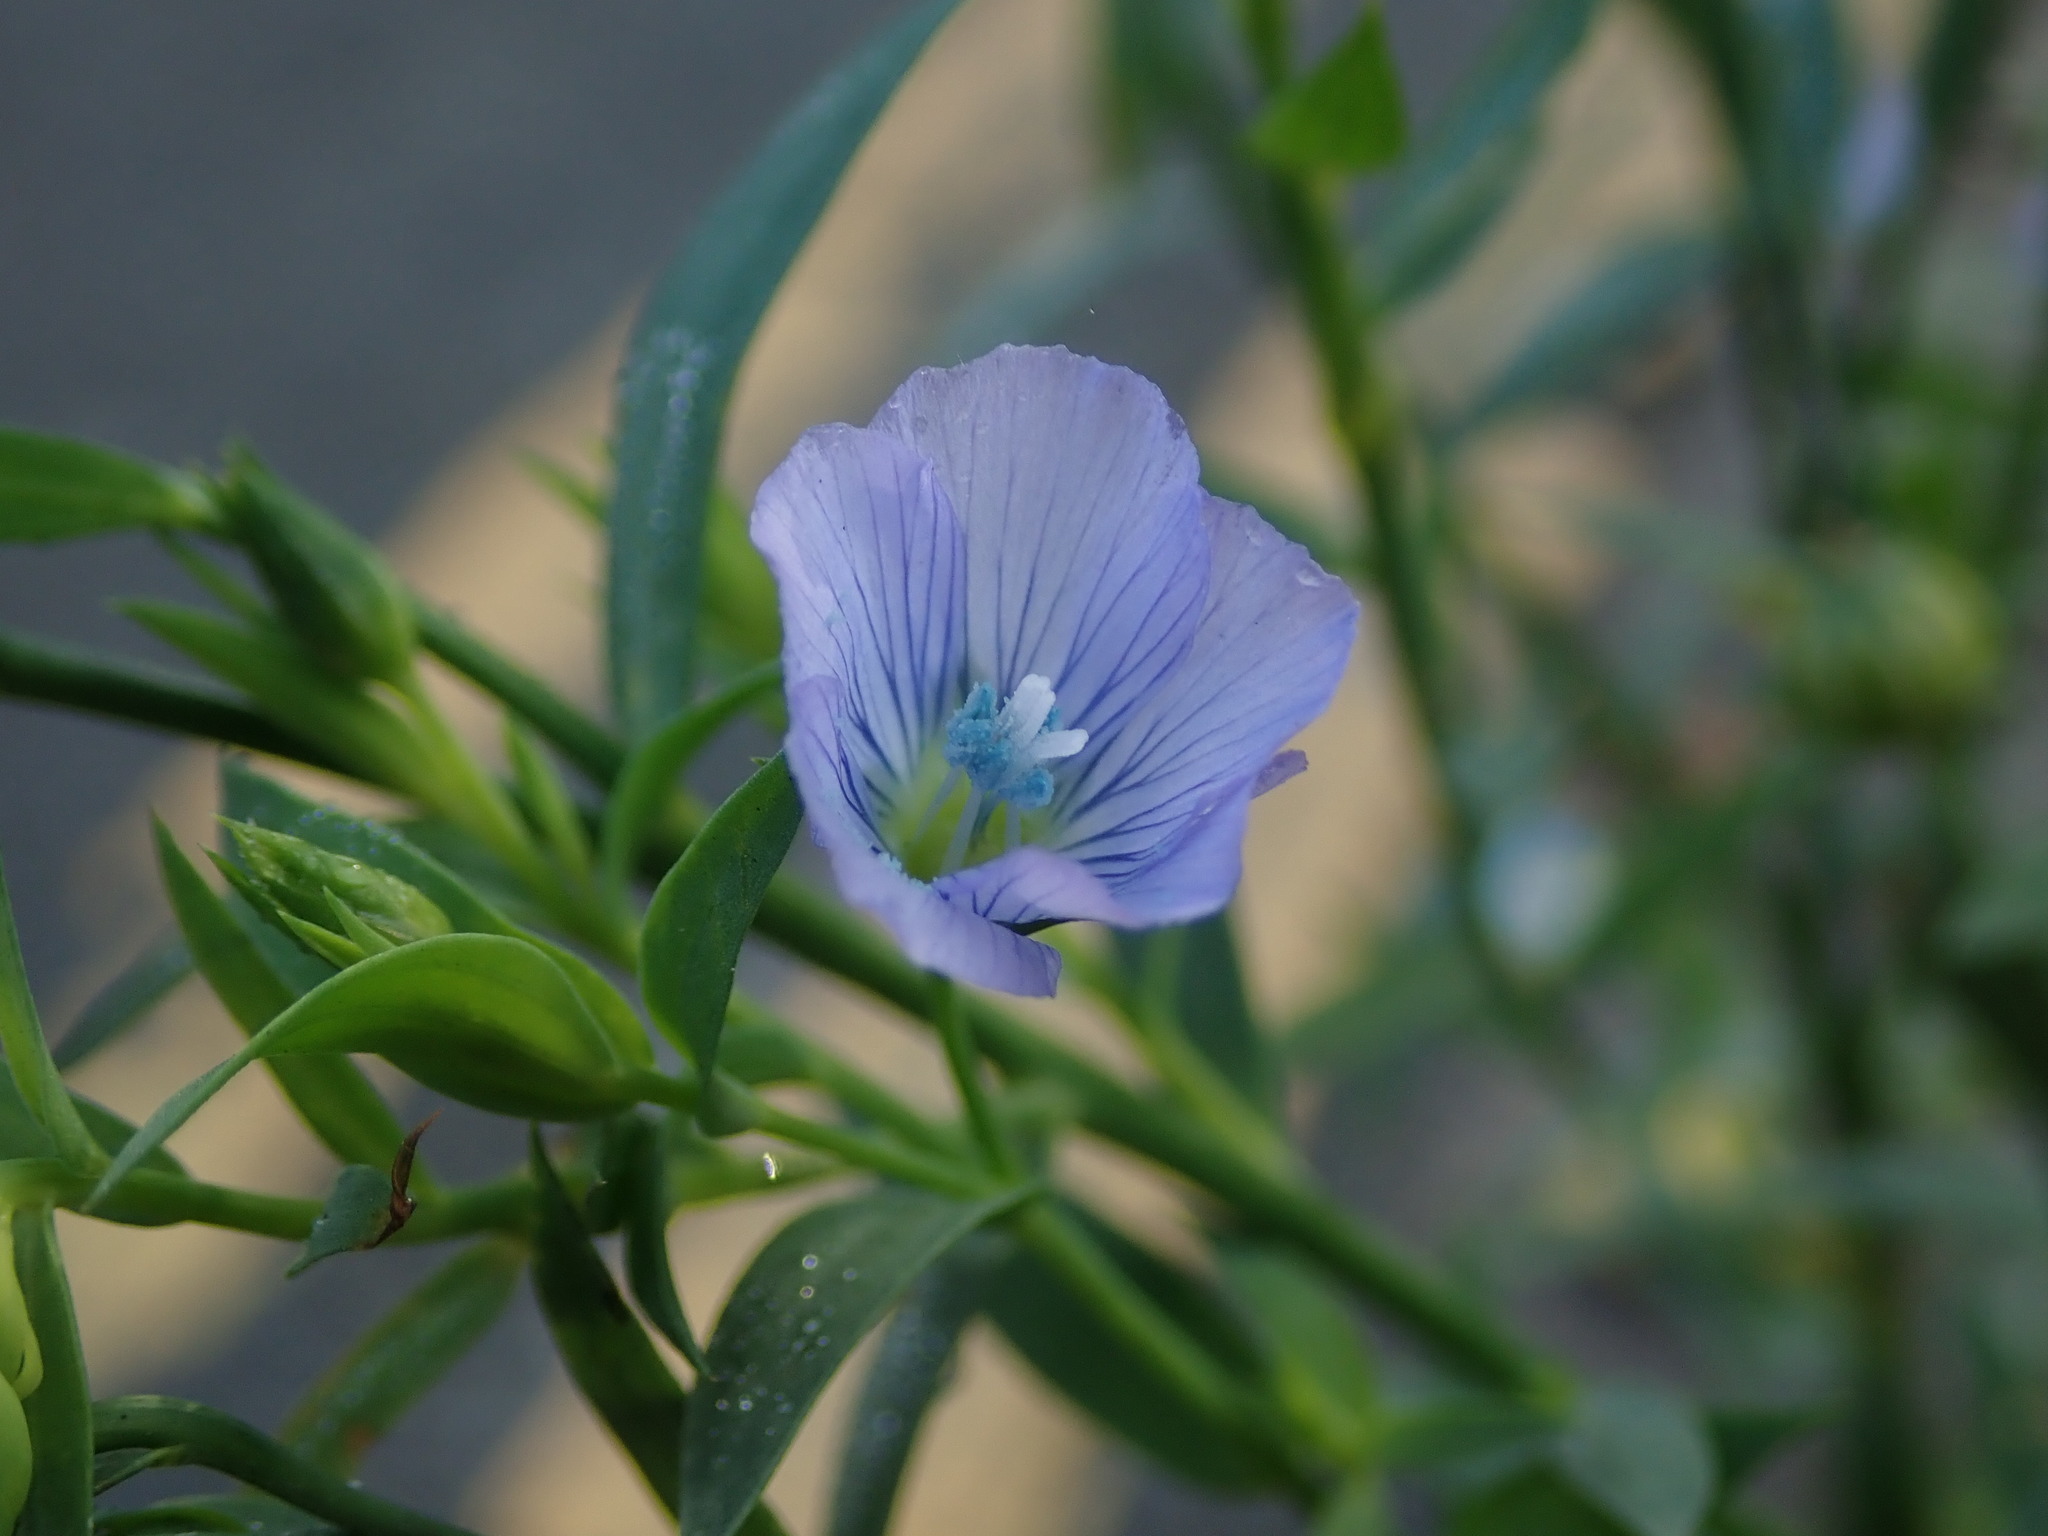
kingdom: Plantae
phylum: Tracheophyta
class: Magnoliopsida
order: Malpighiales
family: Linaceae
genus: Linum
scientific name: Linum usitatissimum
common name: Flax
